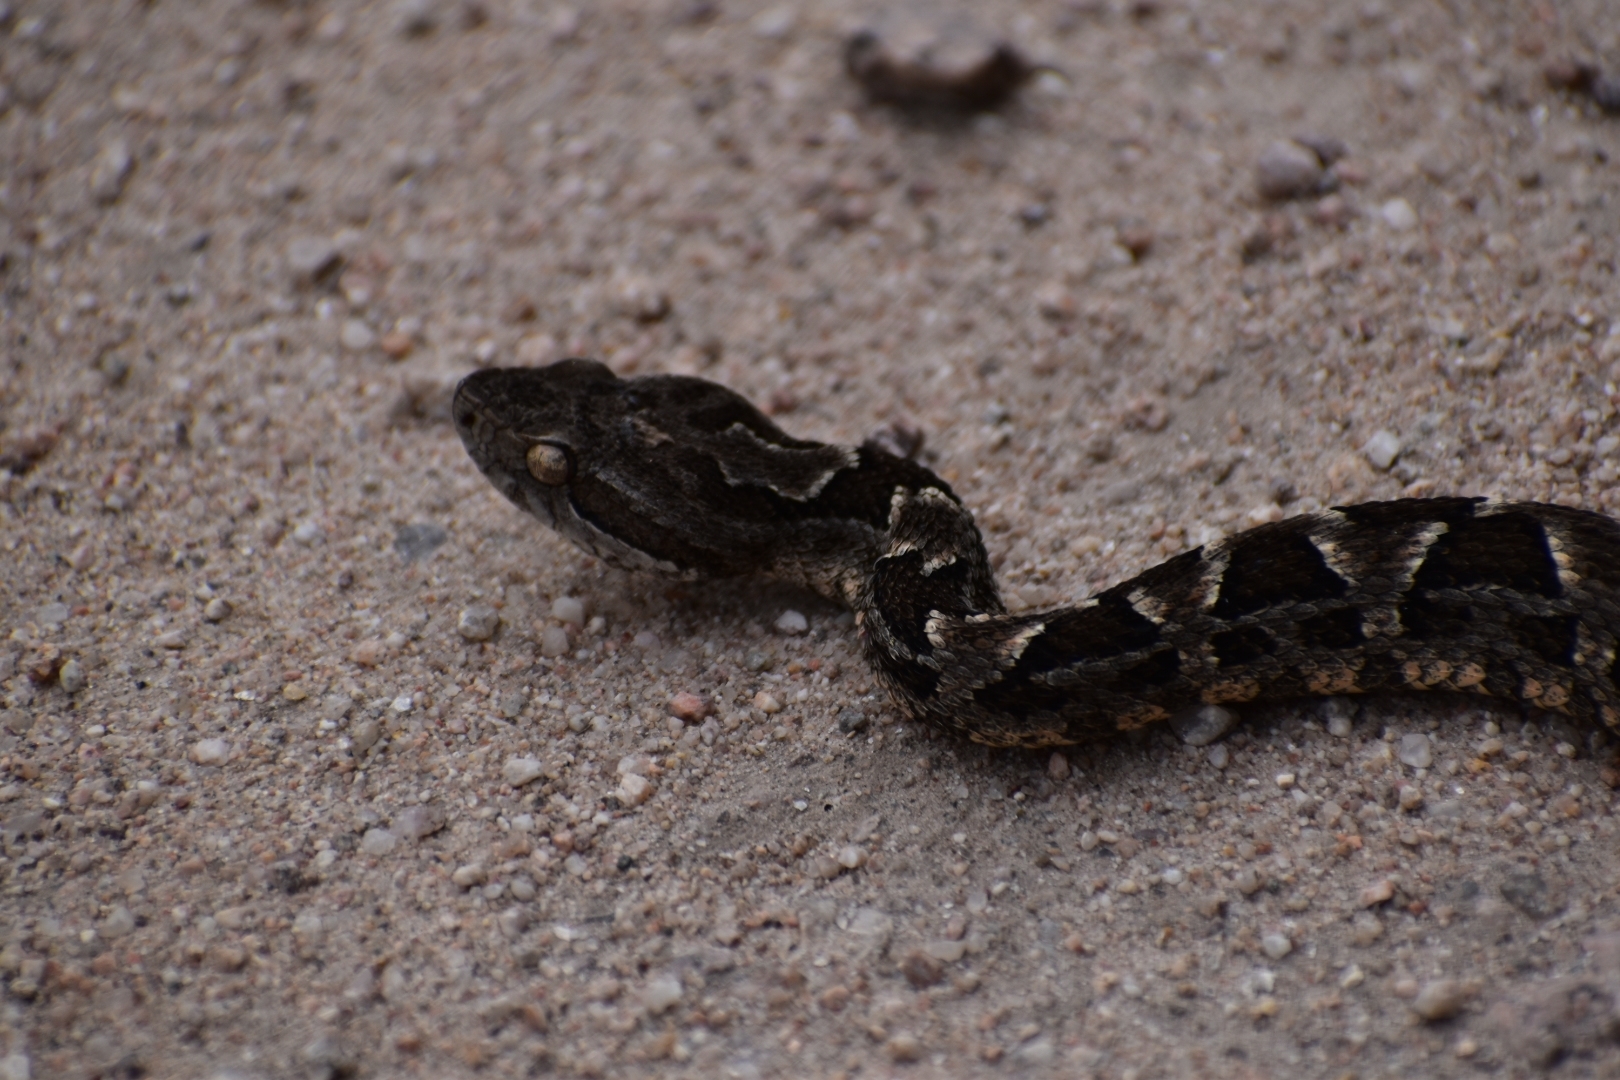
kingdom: Animalia
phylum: Chordata
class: Squamata
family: Viperidae
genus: Bothrops
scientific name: Bothrops diporus
